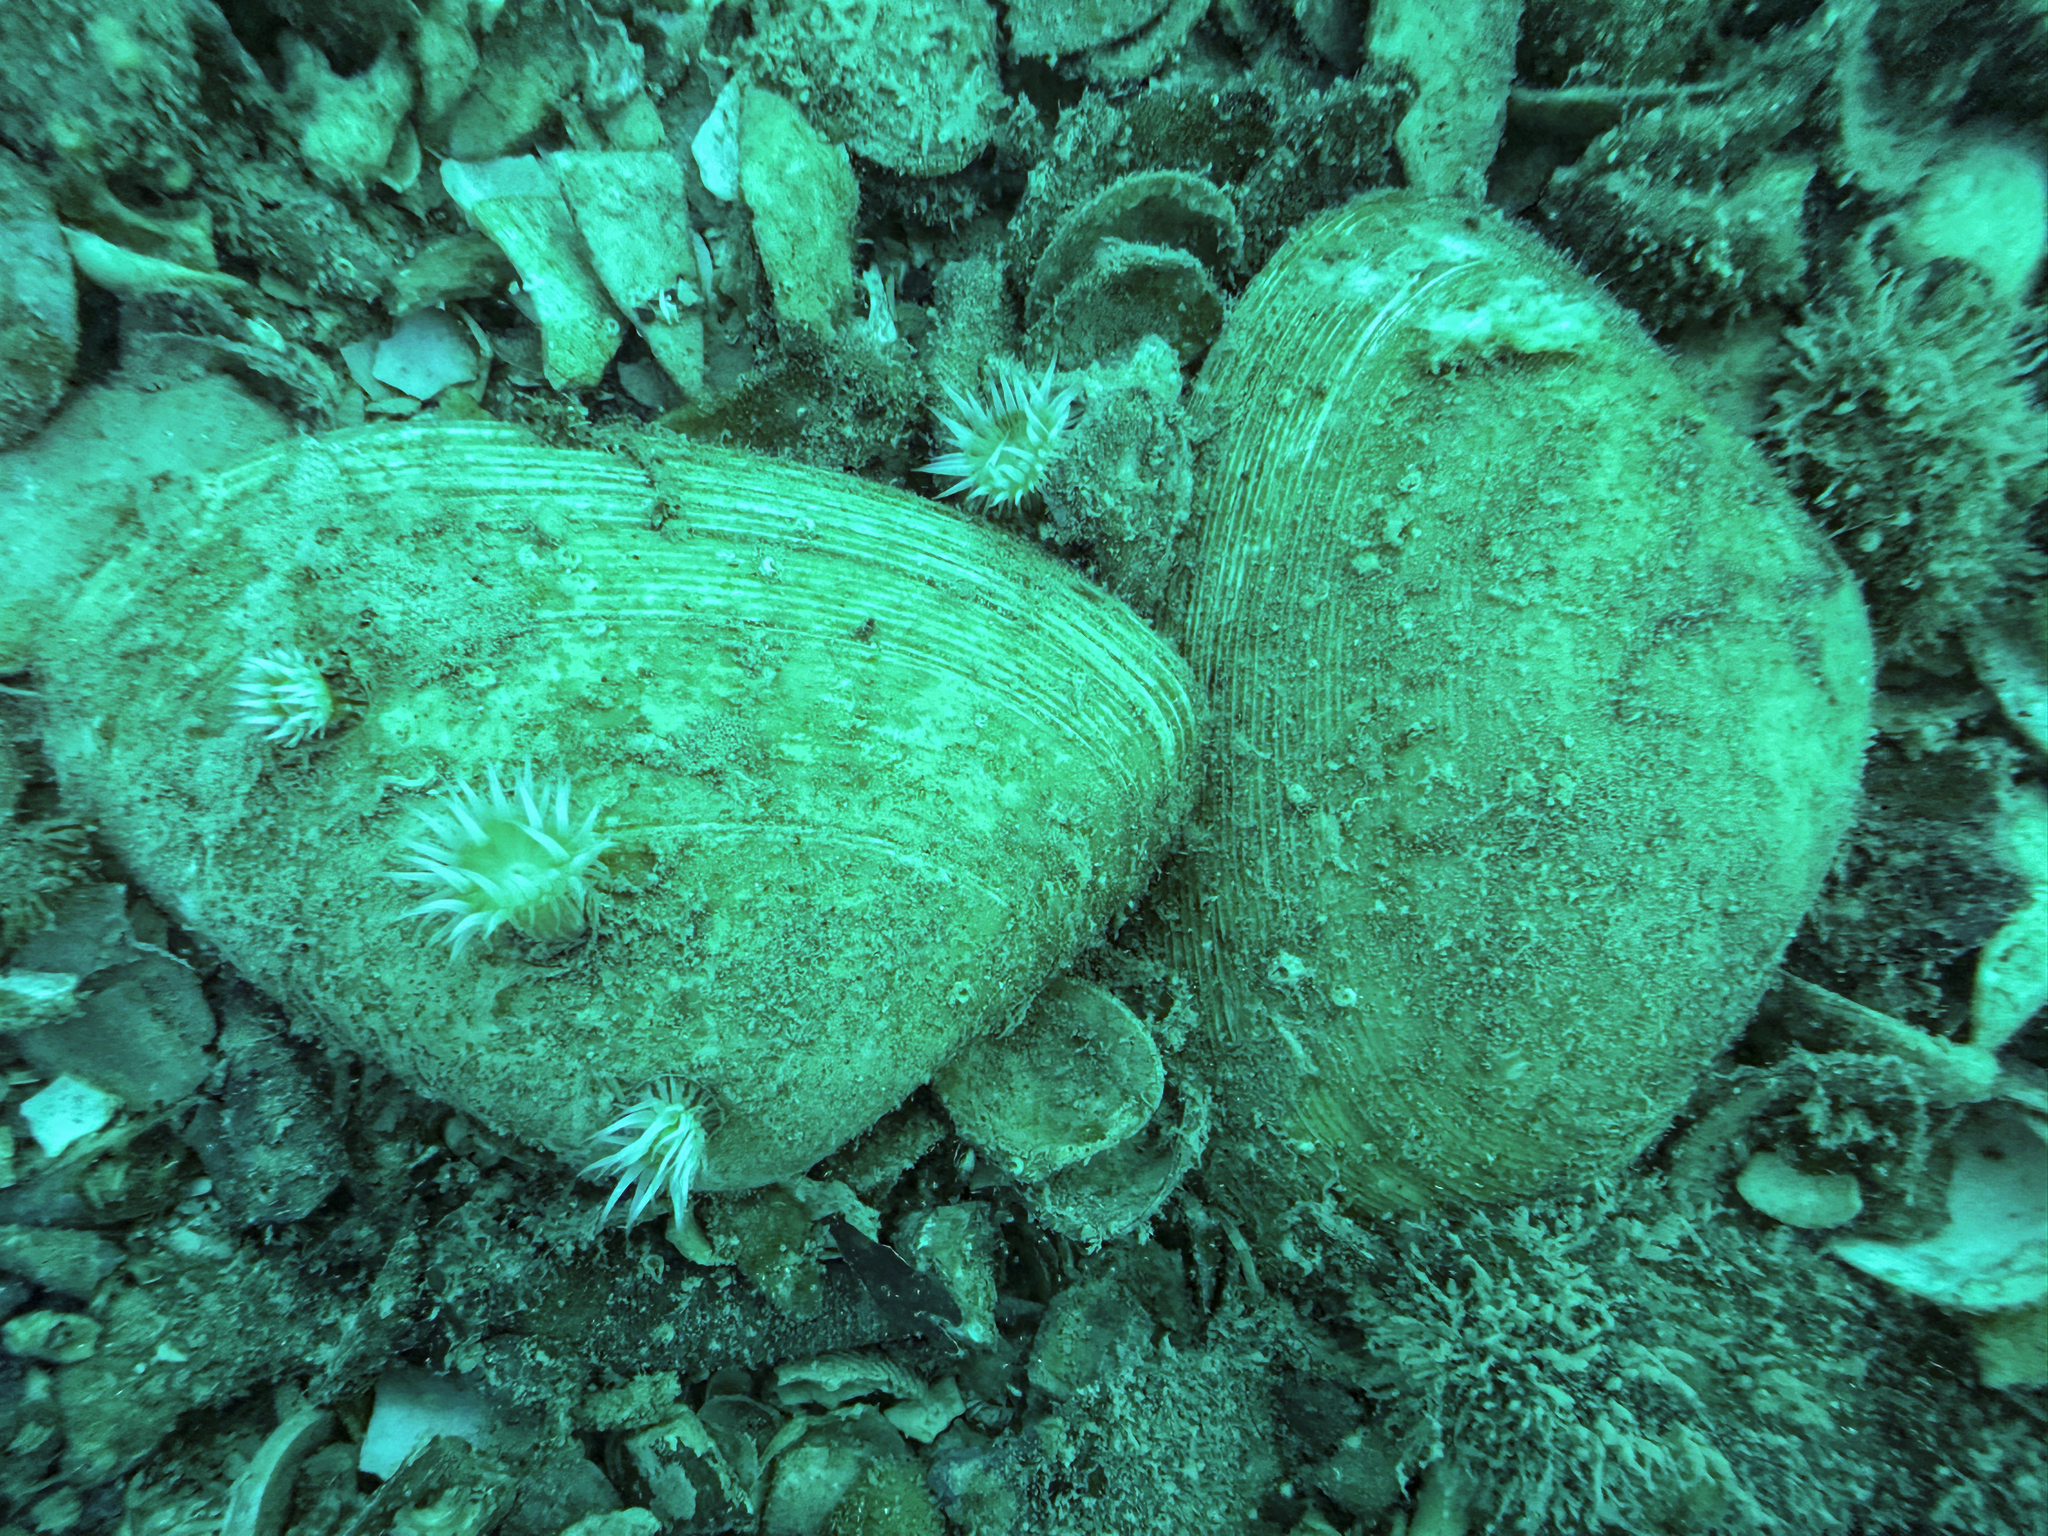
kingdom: Animalia
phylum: Mollusca
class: Bivalvia
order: Venerida
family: Mactridae
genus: Oxyperas
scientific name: Oxyperas elongatum
